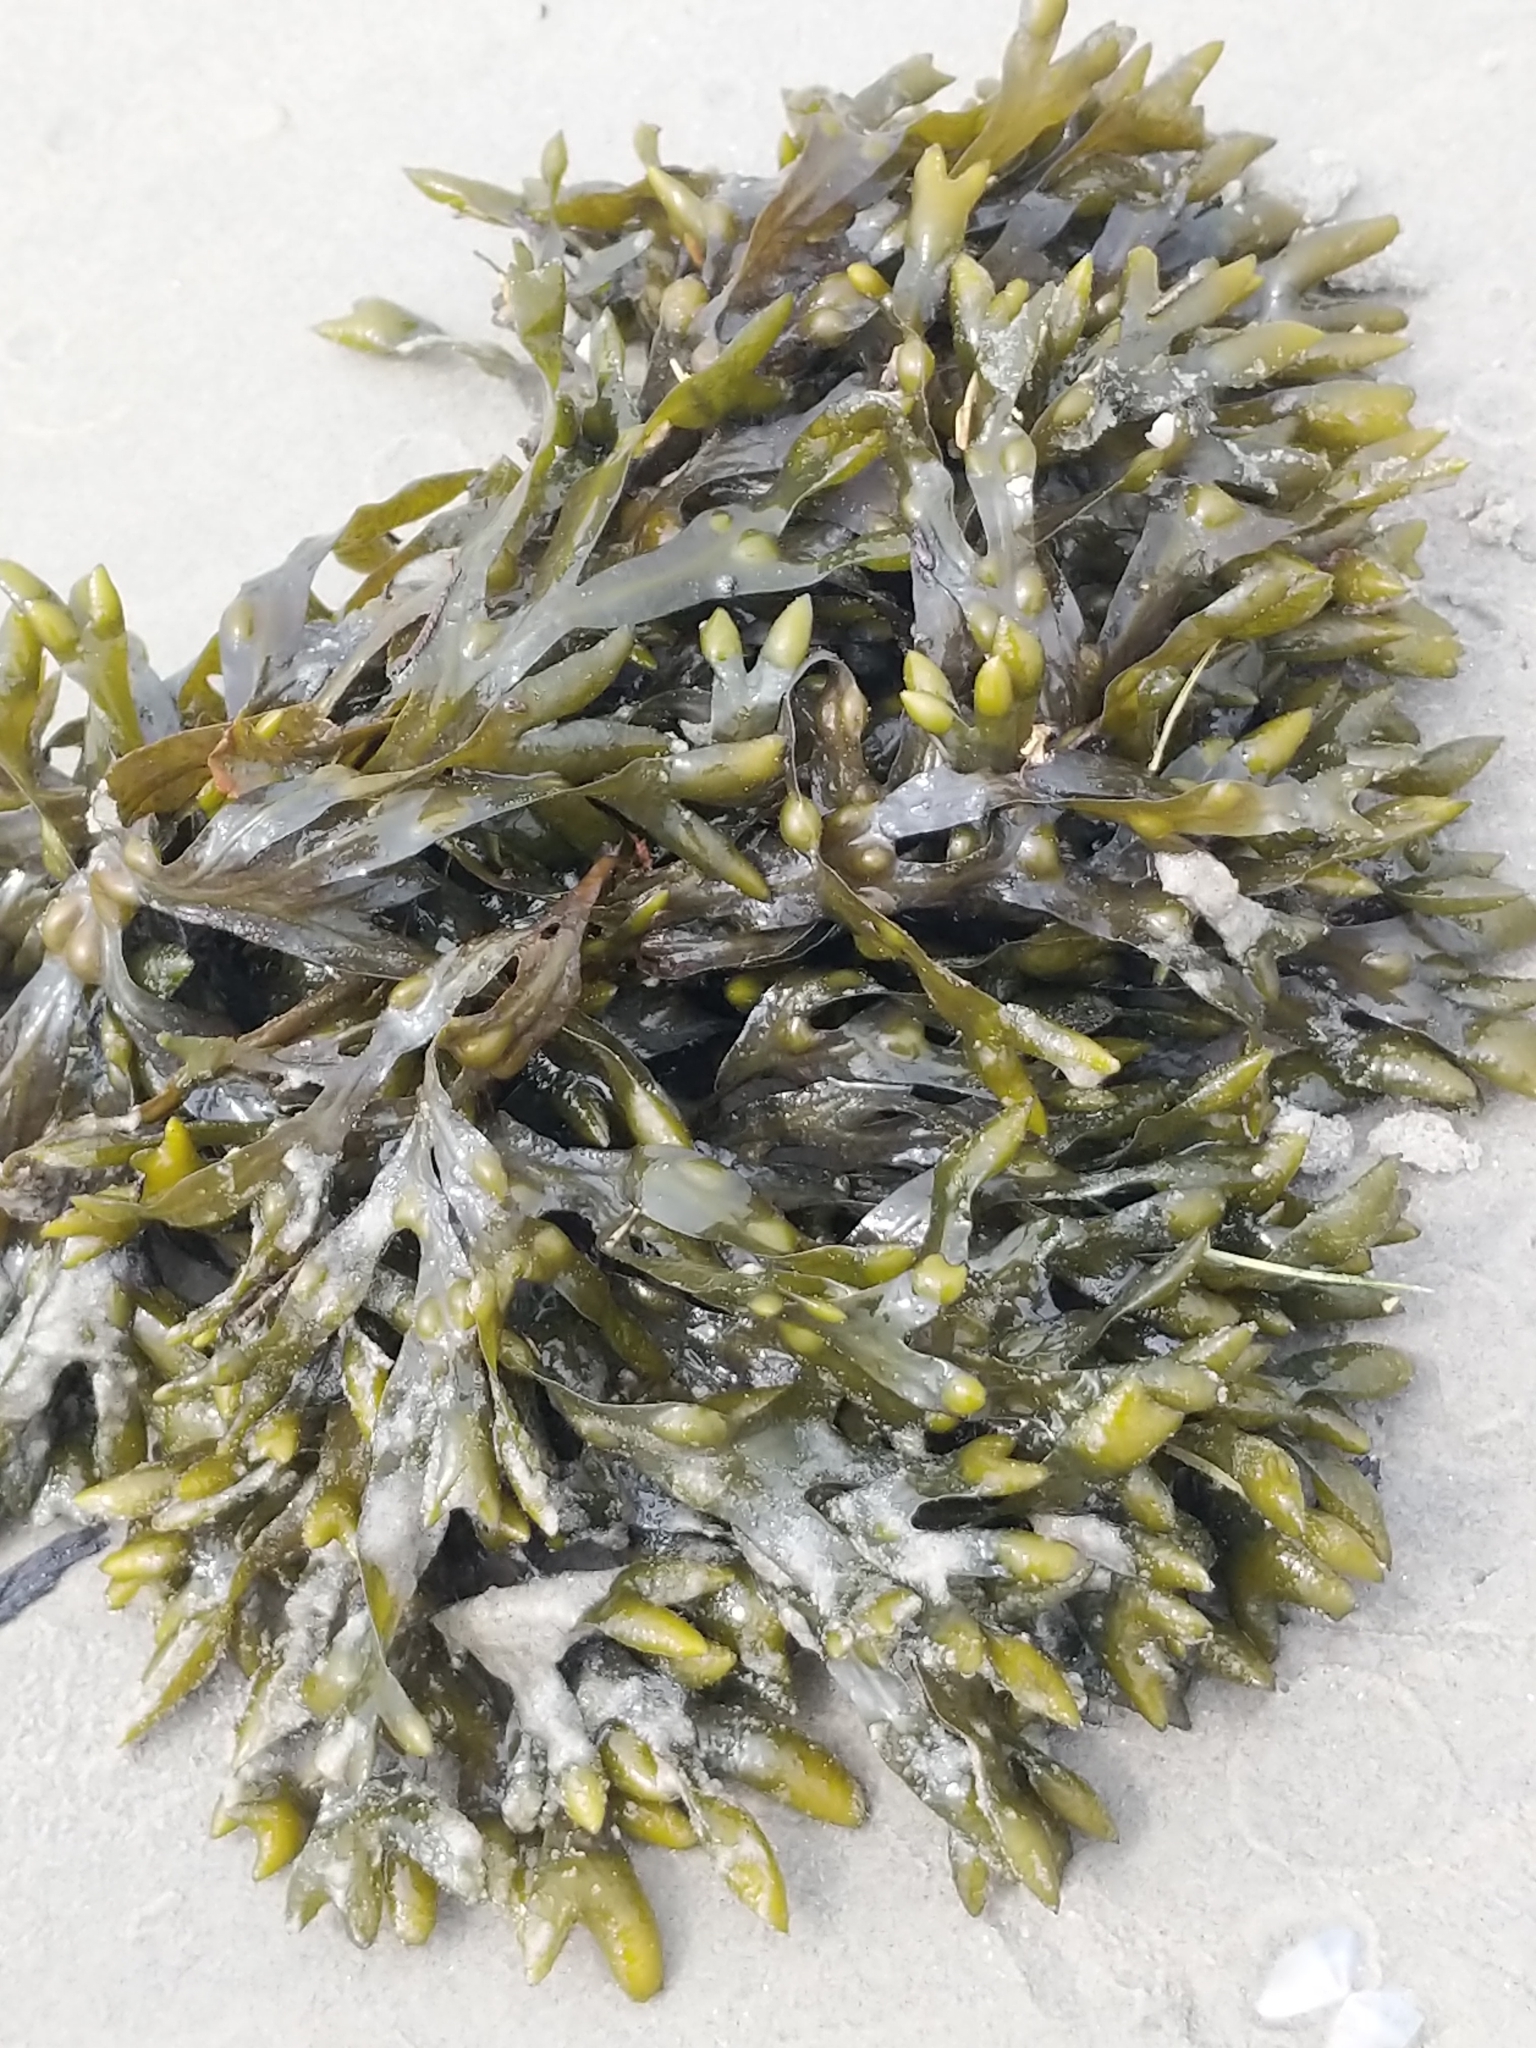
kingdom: Chromista
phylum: Ochrophyta
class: Phaeophyceae
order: Fucales
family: Fucaceae
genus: Fucus
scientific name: Fucus vesiculosus
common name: Bladder wrack
